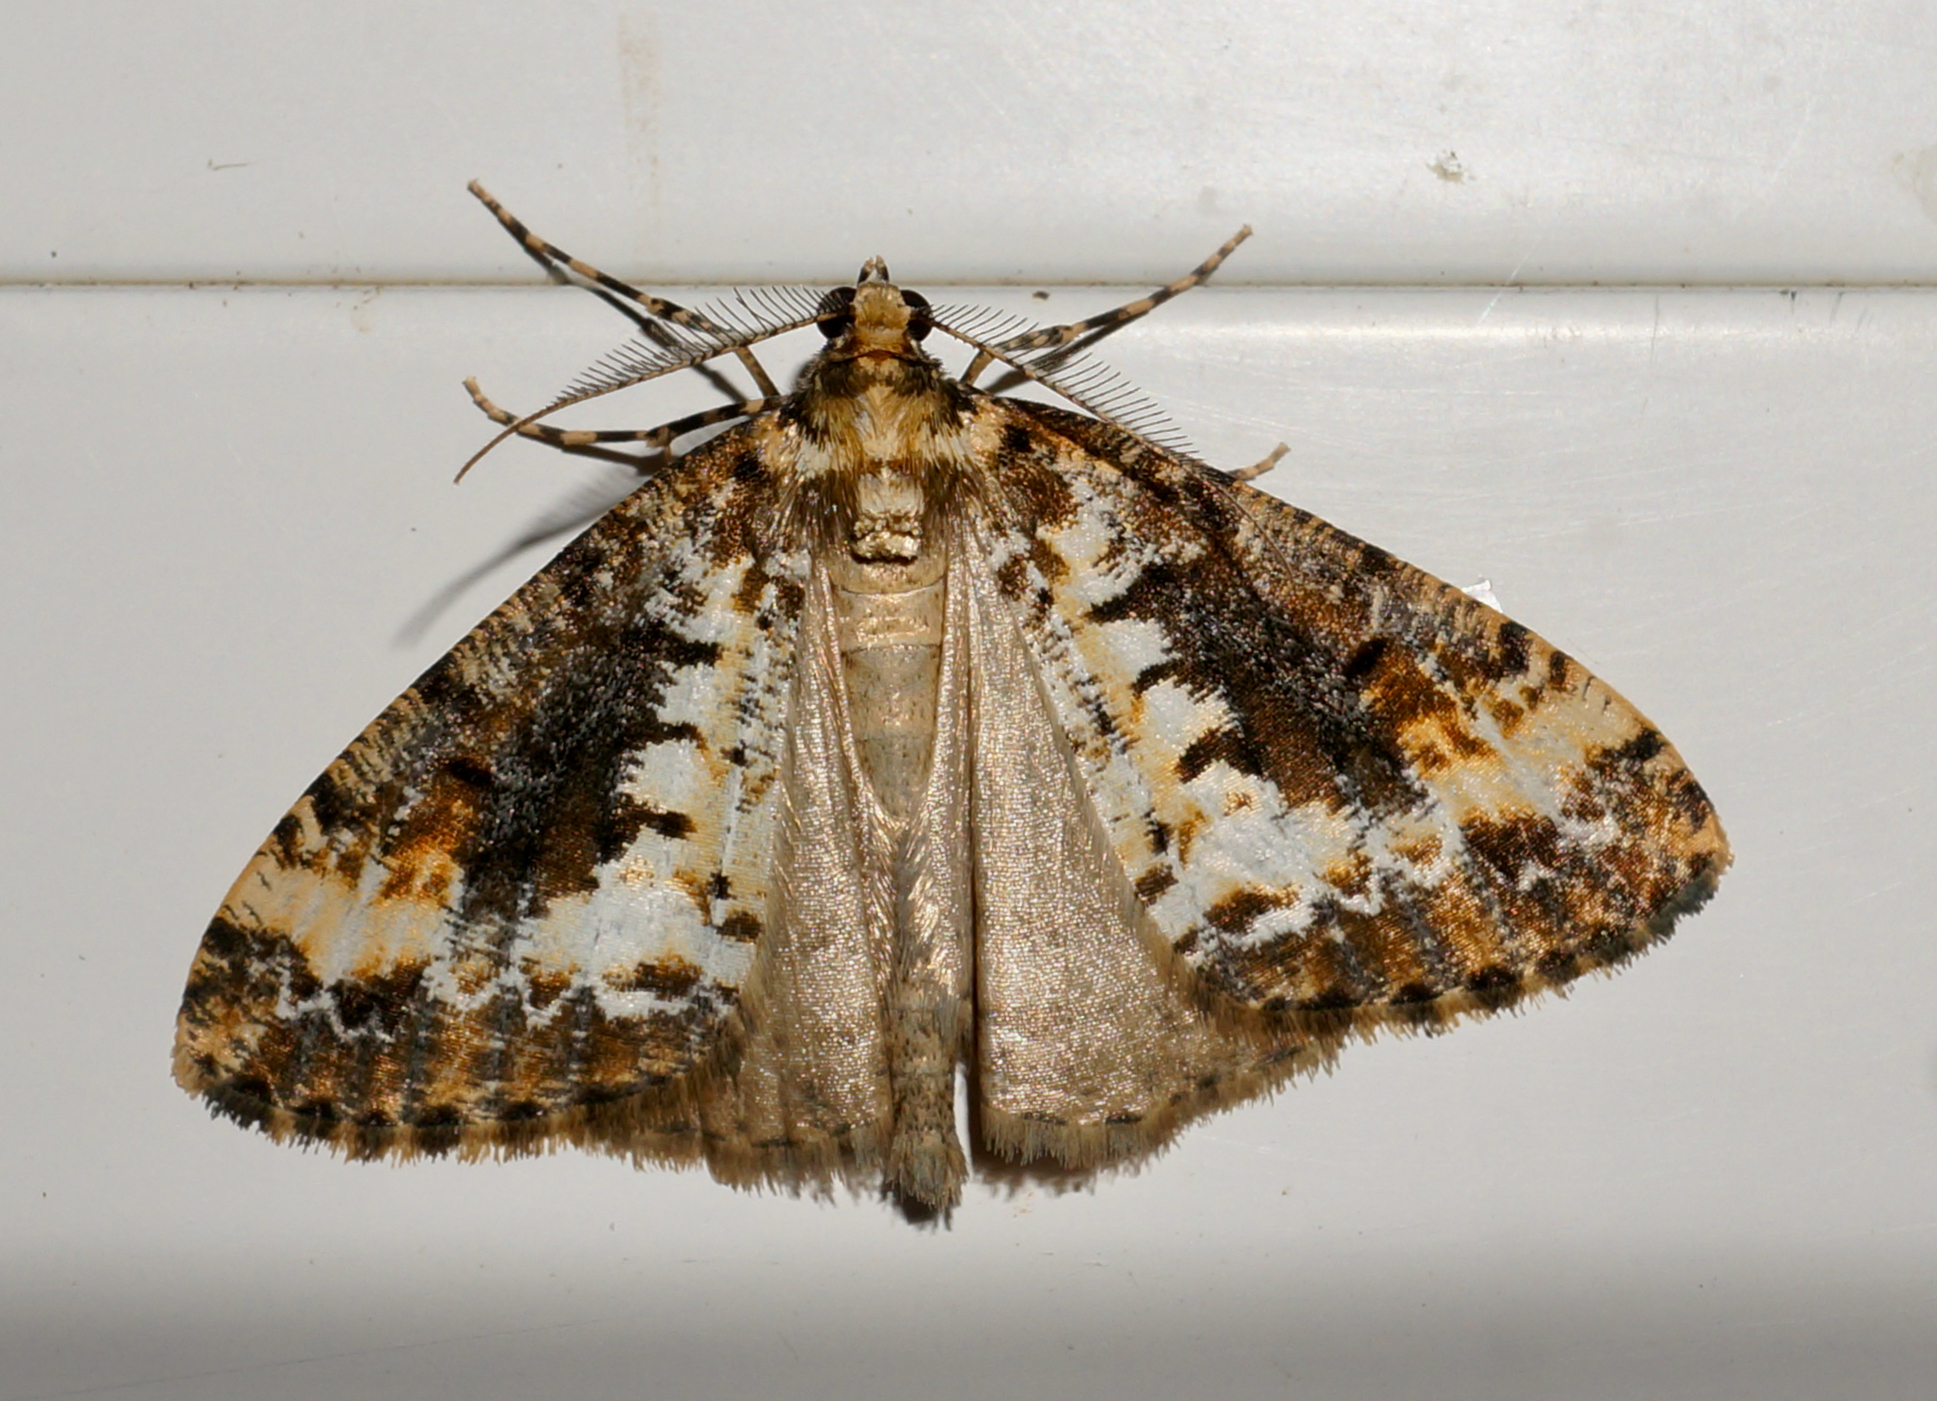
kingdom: Animalia
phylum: Arthropoda
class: Insecta
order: Lepidoptera
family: Geometridae
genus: Pseudocoremia
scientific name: Pseudocoremia leucelaea
